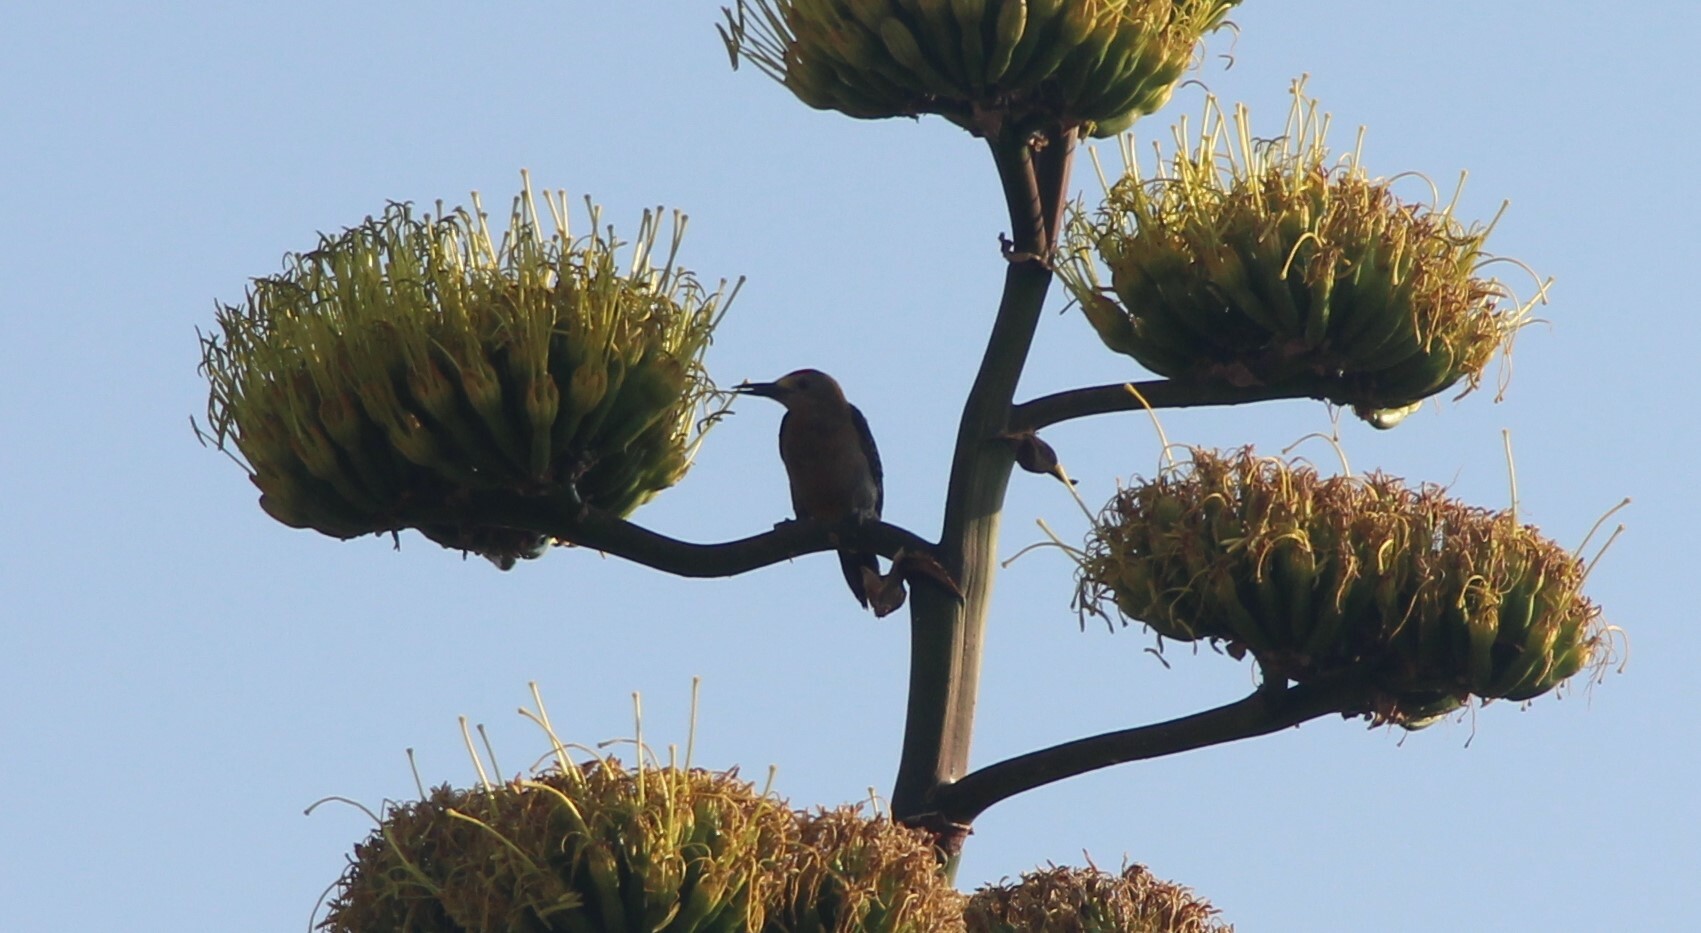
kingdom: Animalia
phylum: Chordata
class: Aves
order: Piciformes
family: Picidae
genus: Melanerpes
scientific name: Melanerpes aurifrons
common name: Golden-fronted woodpecker
